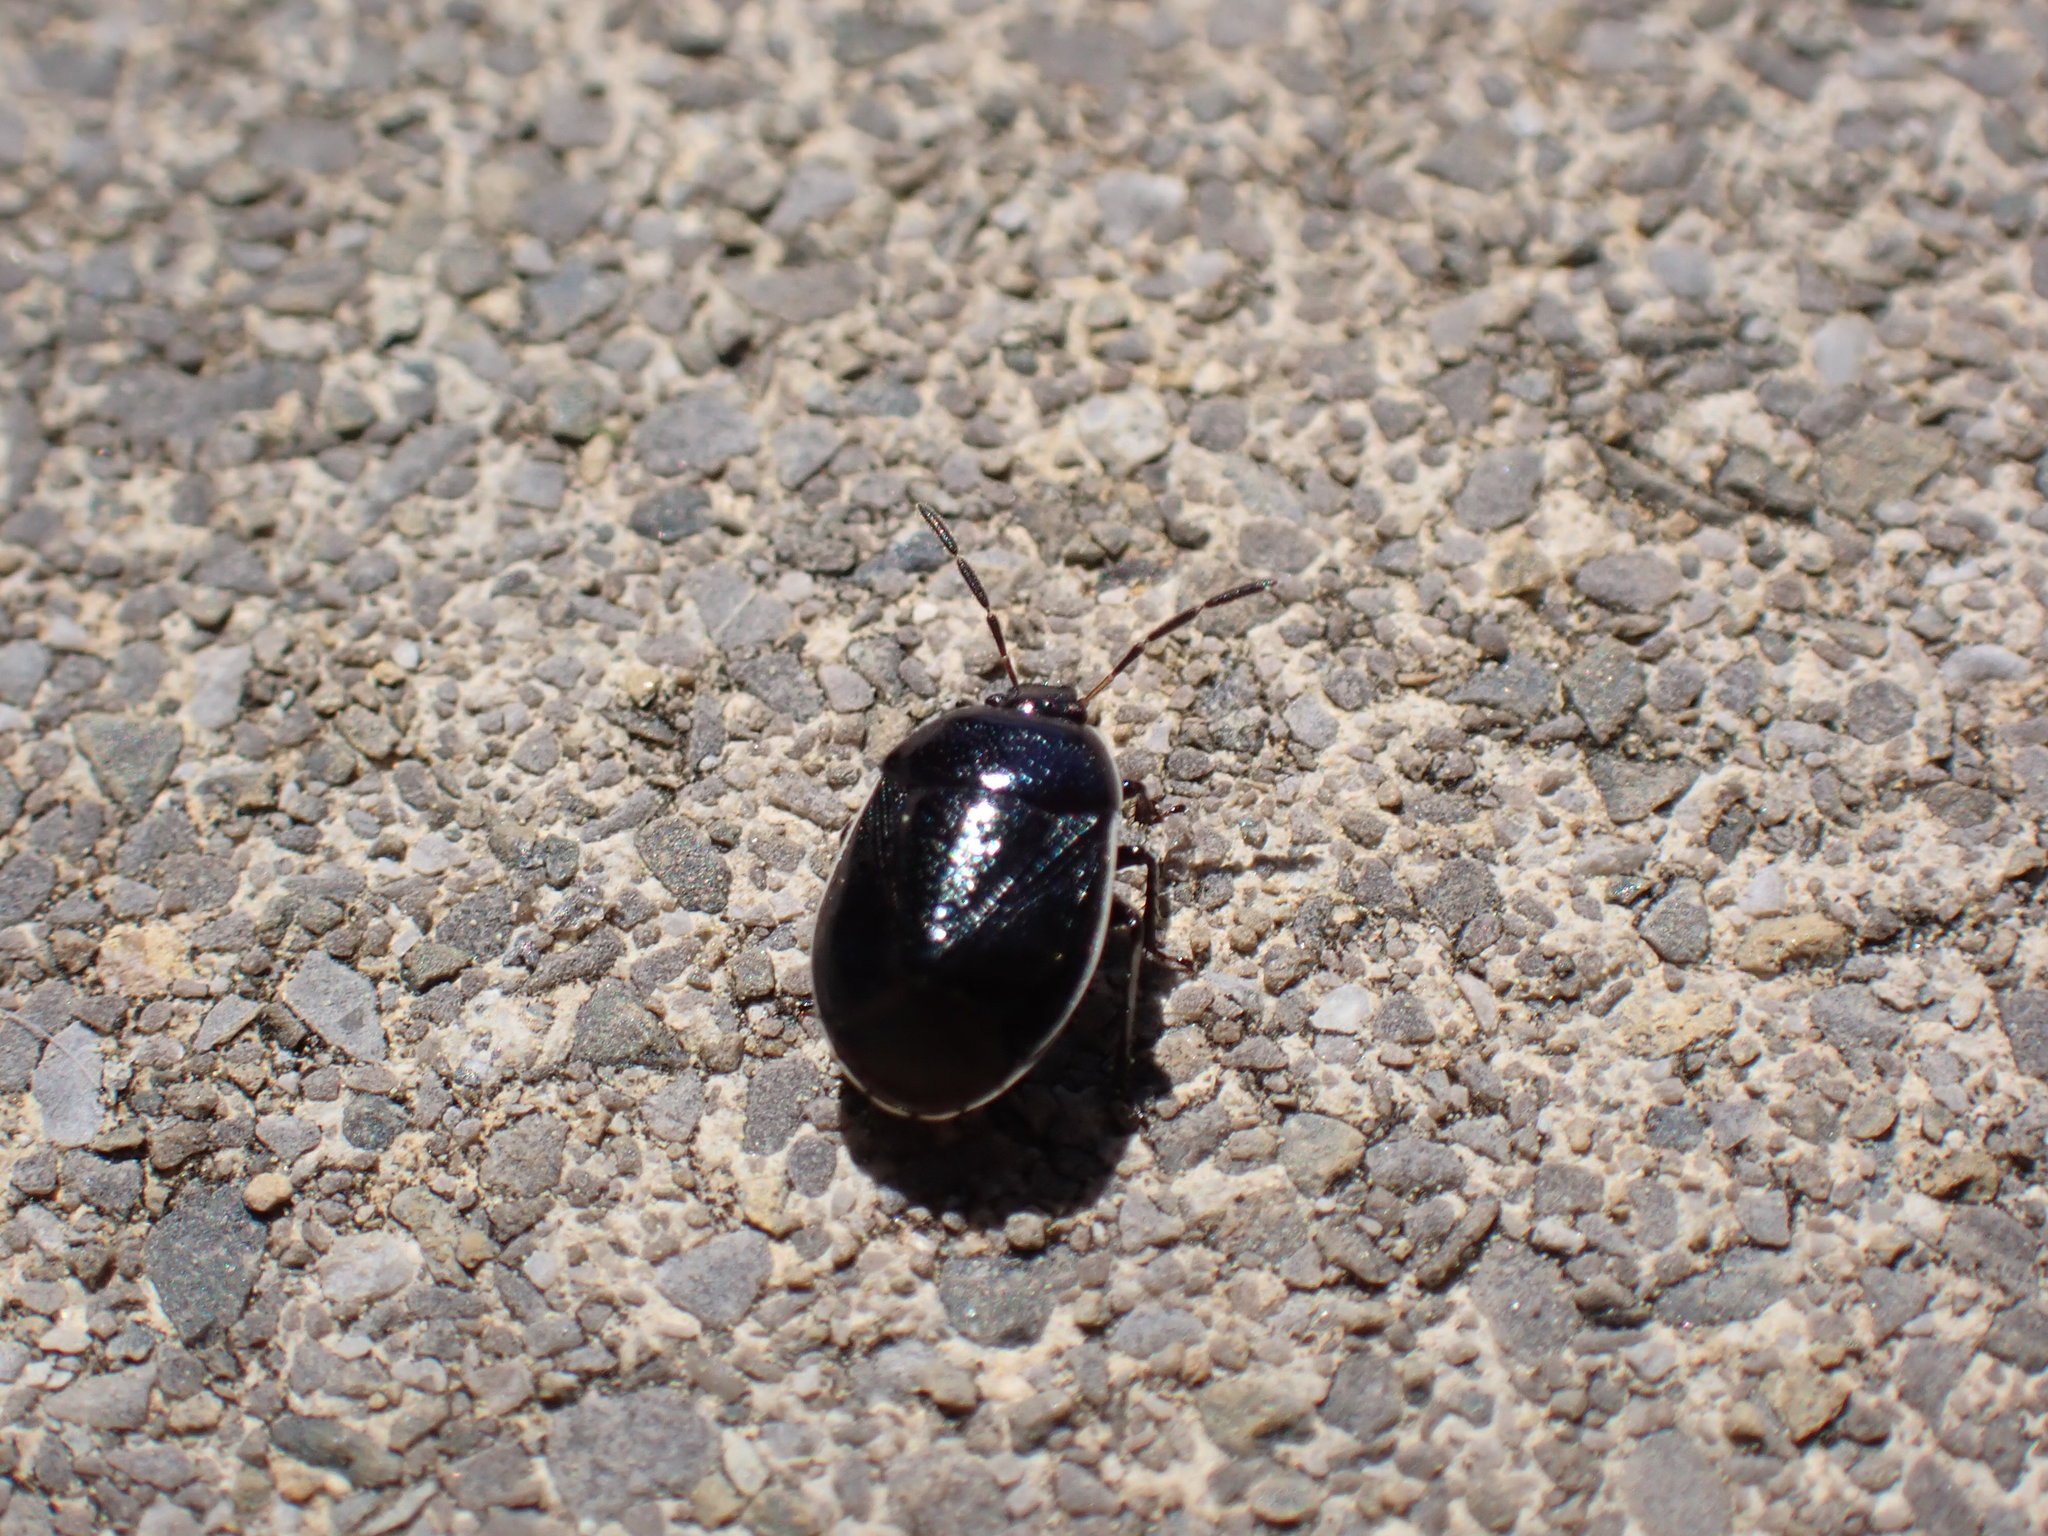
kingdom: Animalia
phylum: Arthropoda
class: Insecta
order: Hemiptera
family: Cydnidae
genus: Sehirus
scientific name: Sehirus cinctus
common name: White-margined burrower bug
